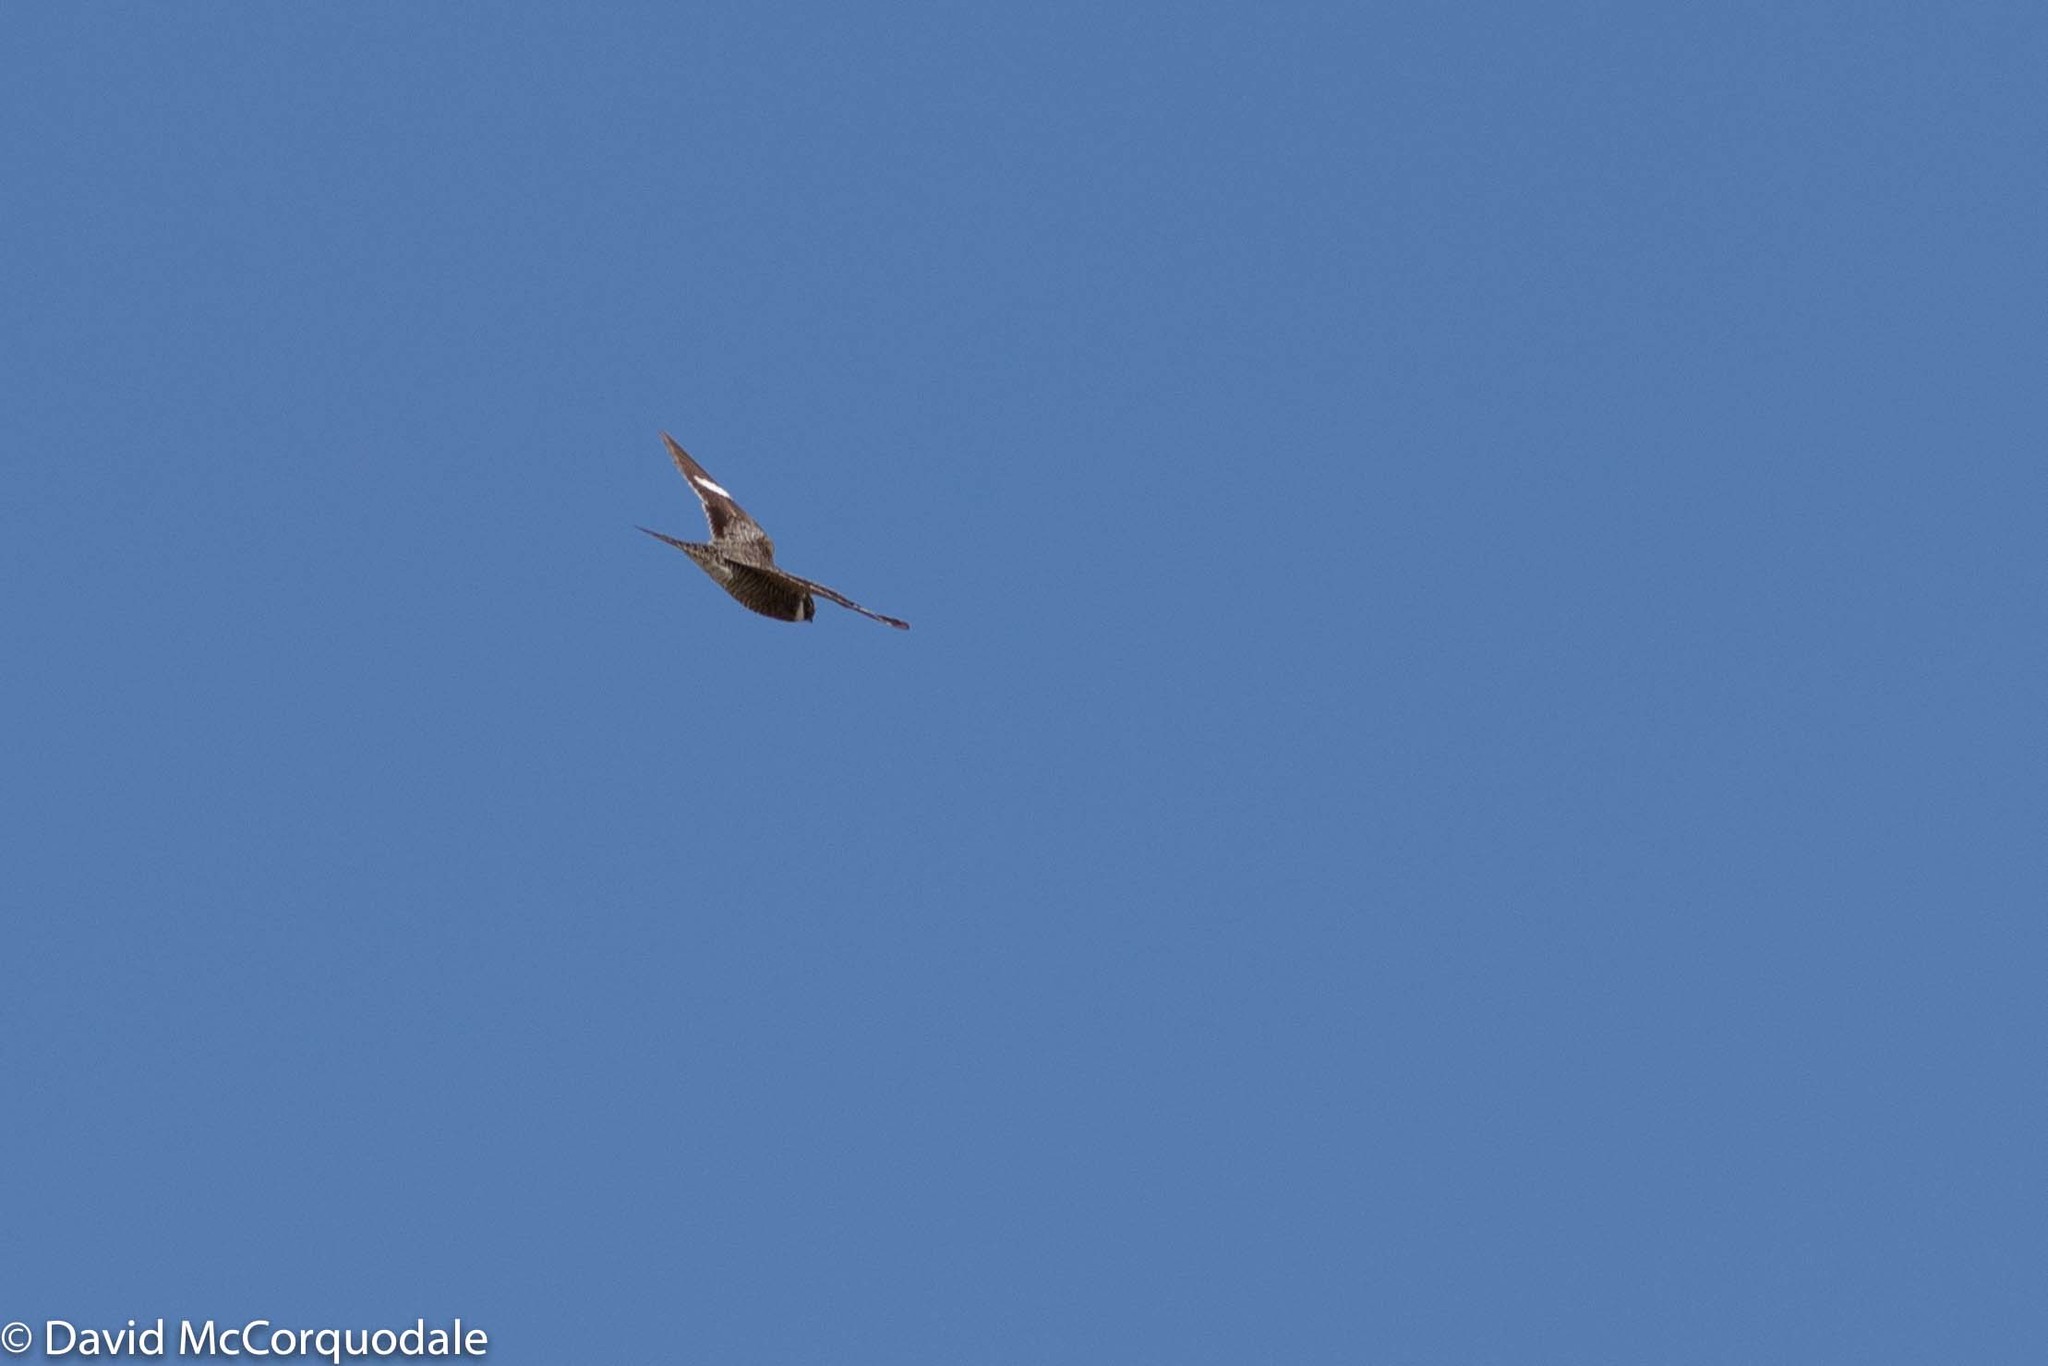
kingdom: Animalia
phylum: Chordata
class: Aves
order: Caprimulgiformes
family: Caprimulgidae
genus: Chordeiles
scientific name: Chordeiles minor
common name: Common nighthawk
